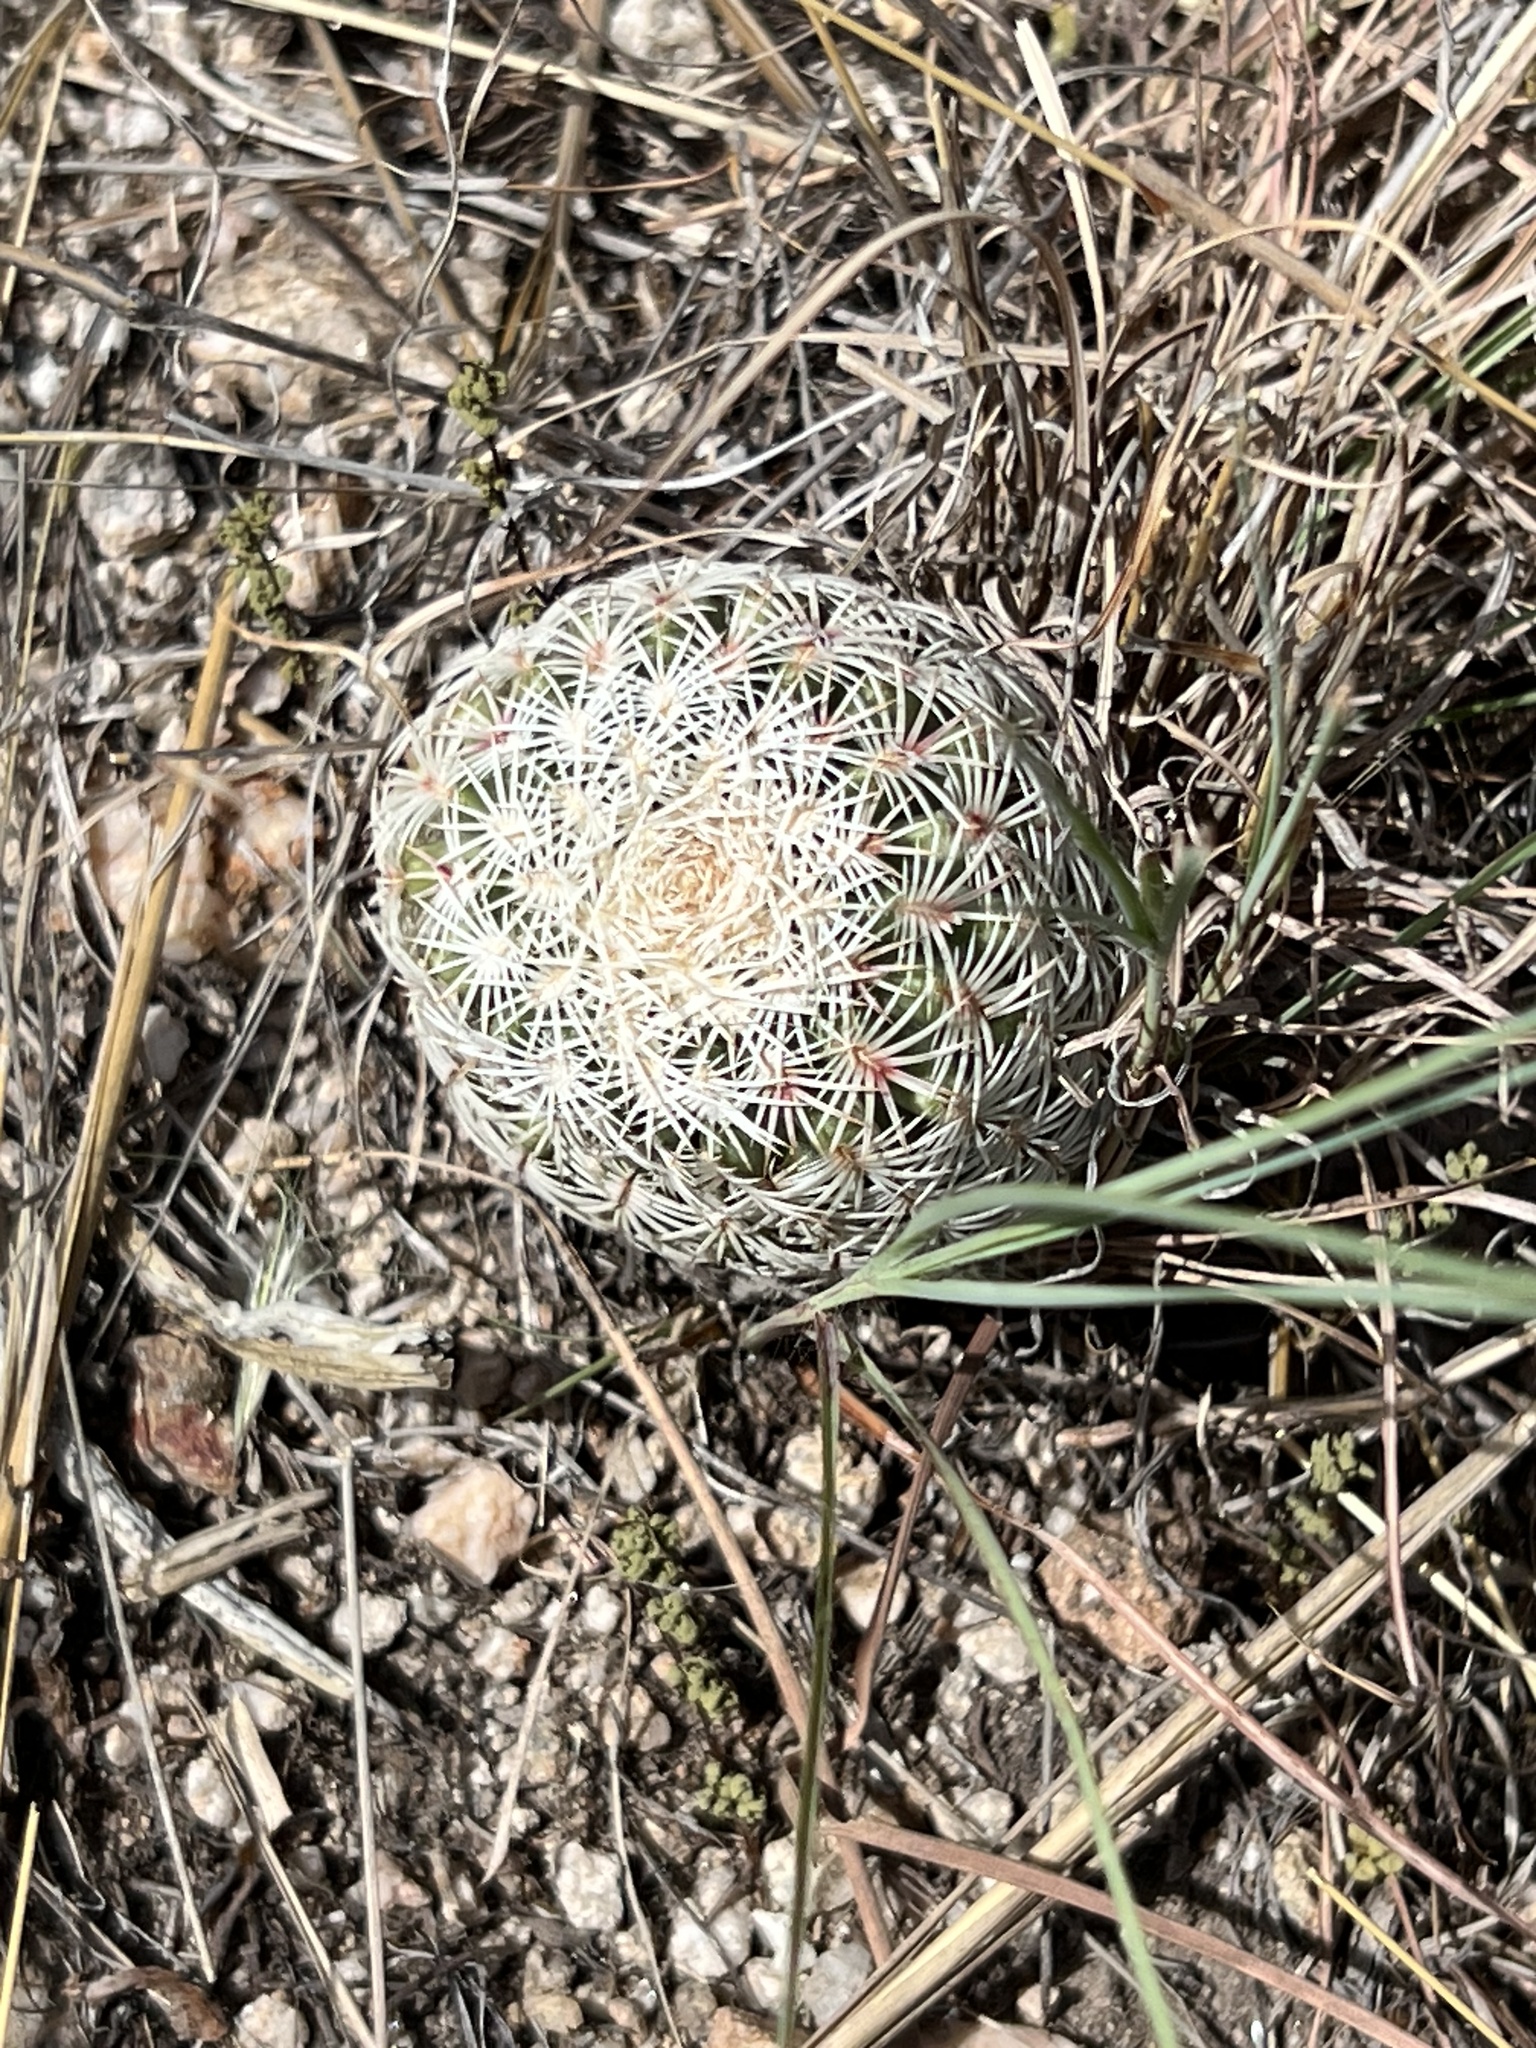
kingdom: Plantae
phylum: Tracheophyta
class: Magnoliopsida
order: Caryophyllales
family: Cactaceae
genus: Echinocereus
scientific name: Echinocereus rigidissimus
